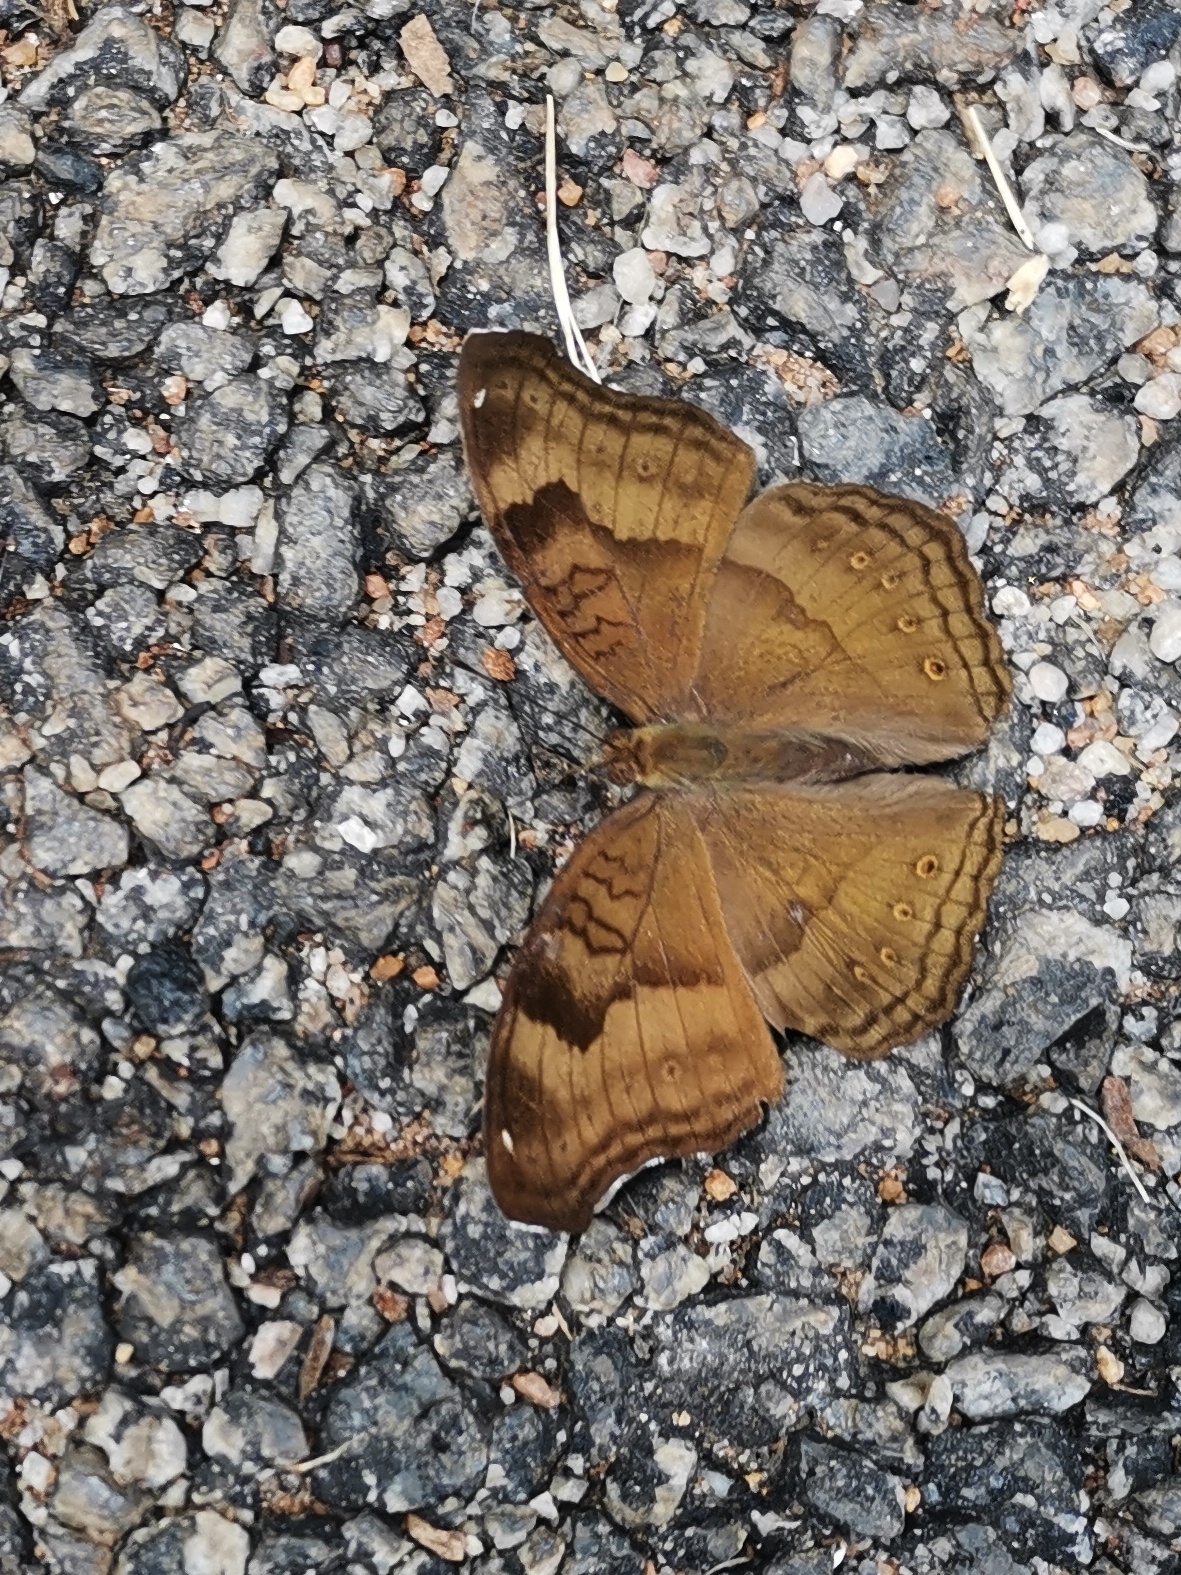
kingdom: Animalia
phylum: Arthropoda
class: Insecta
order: Lepidoptera
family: Nymphalidae
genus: Junonia
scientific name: Junonia iphita
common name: Chocolate pansy
